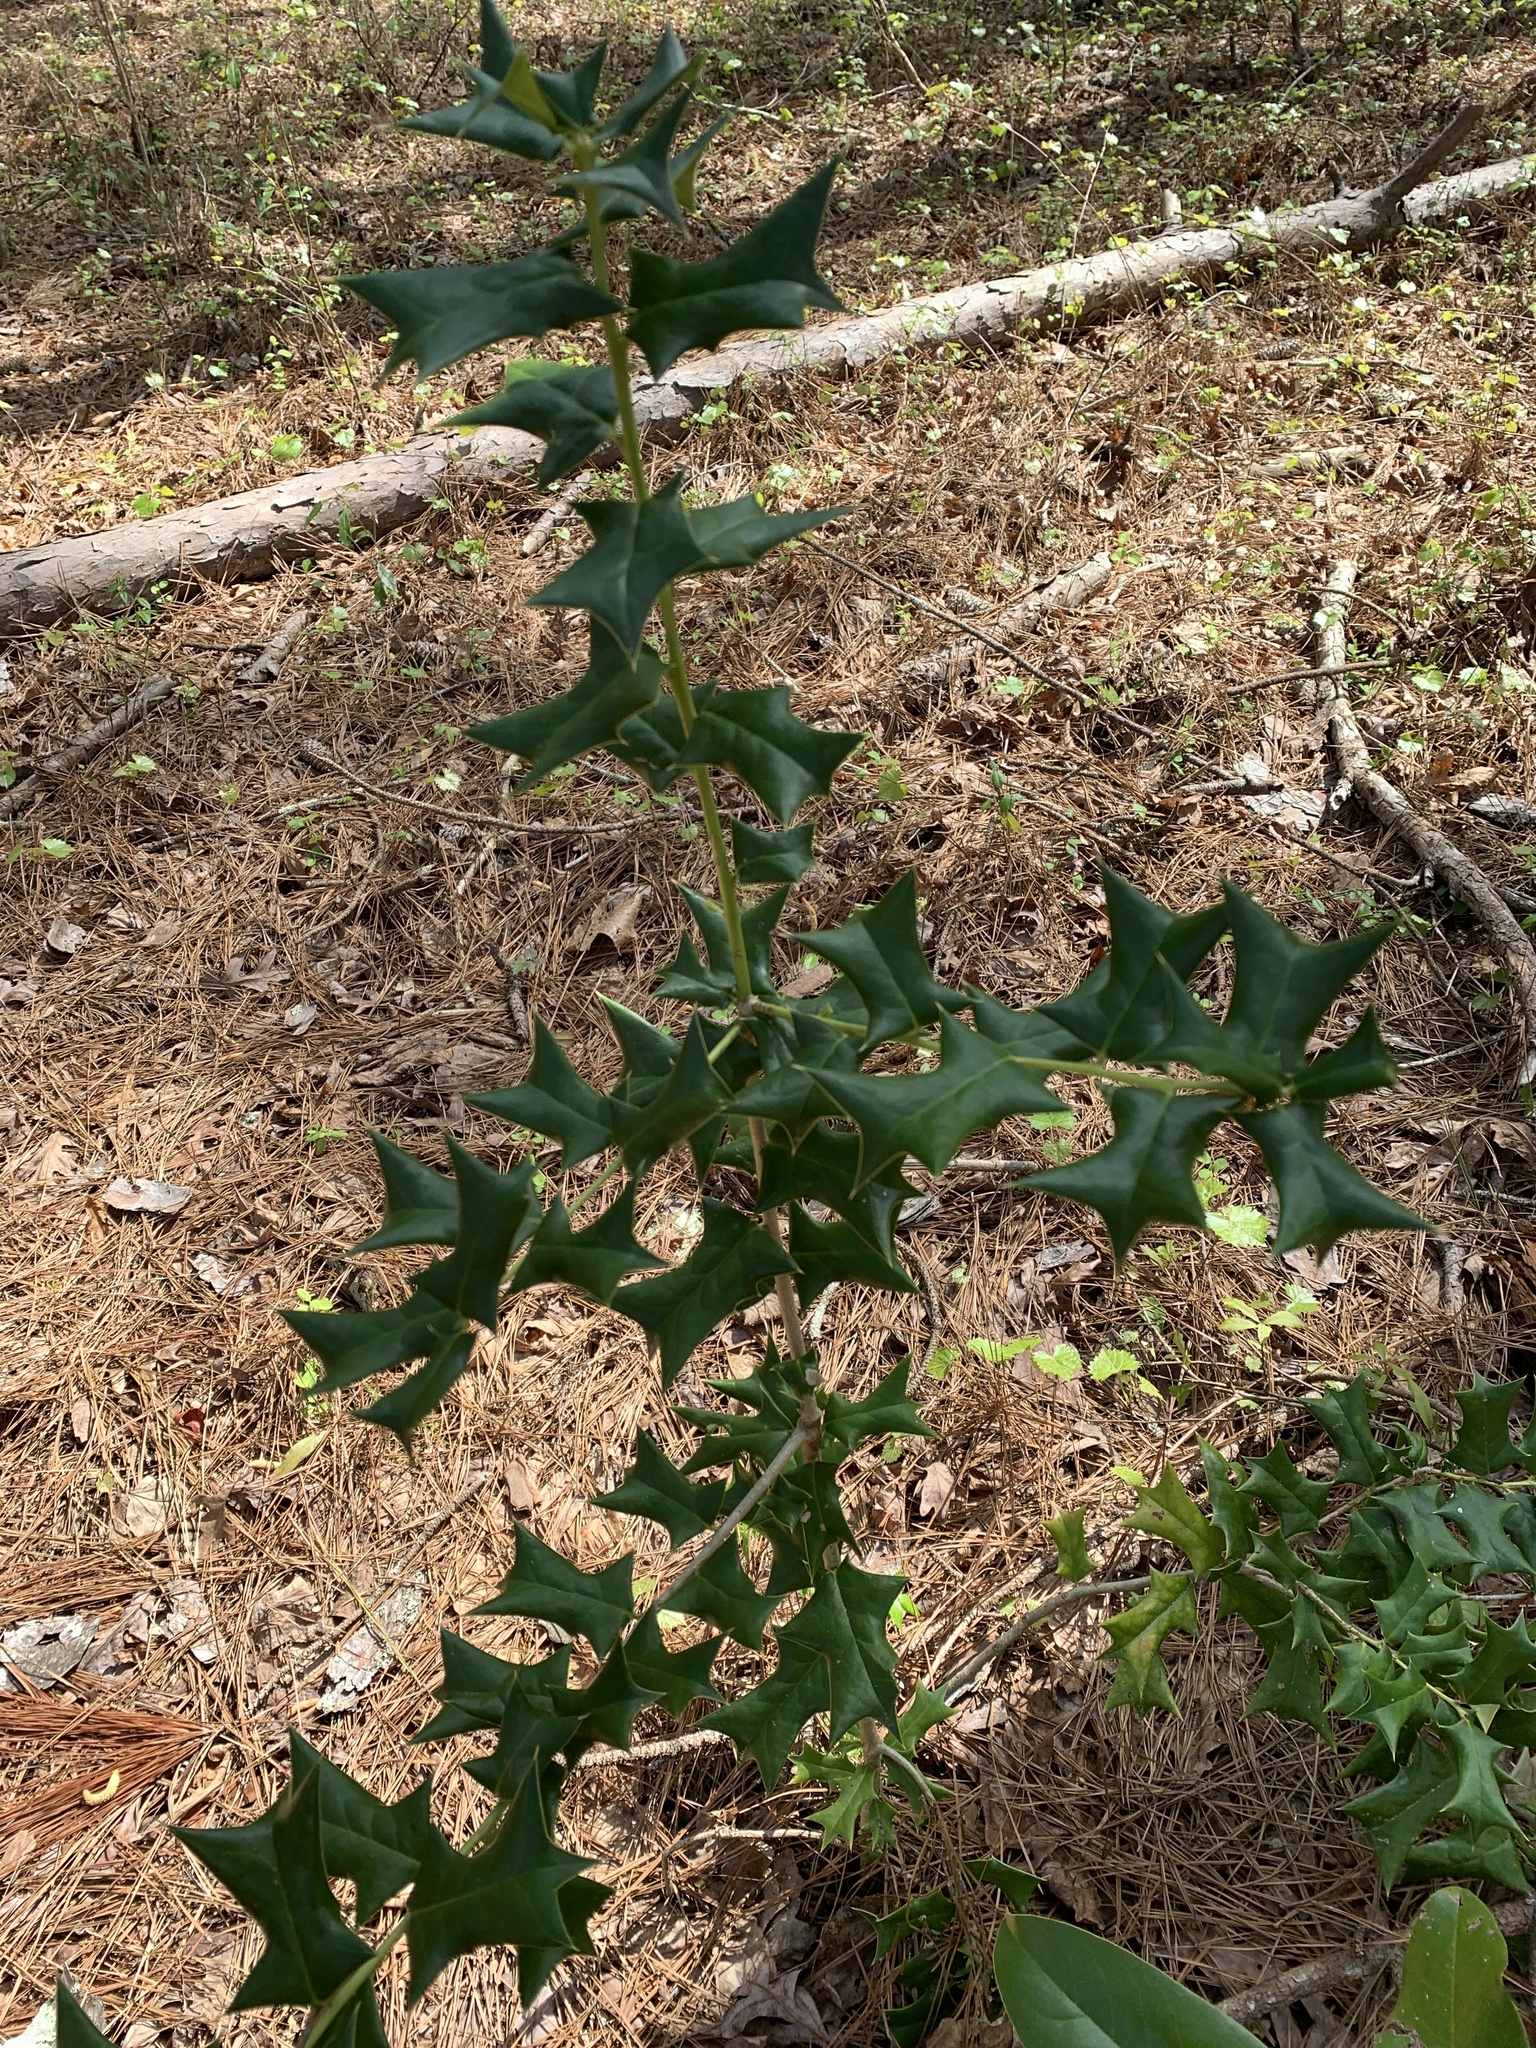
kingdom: Plantae
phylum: Tracheophyta
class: Magnoliopsida
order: Aquifoliales
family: Aquifoliaceae
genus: Ilex
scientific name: Ilex cornuta
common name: Chinese holly
